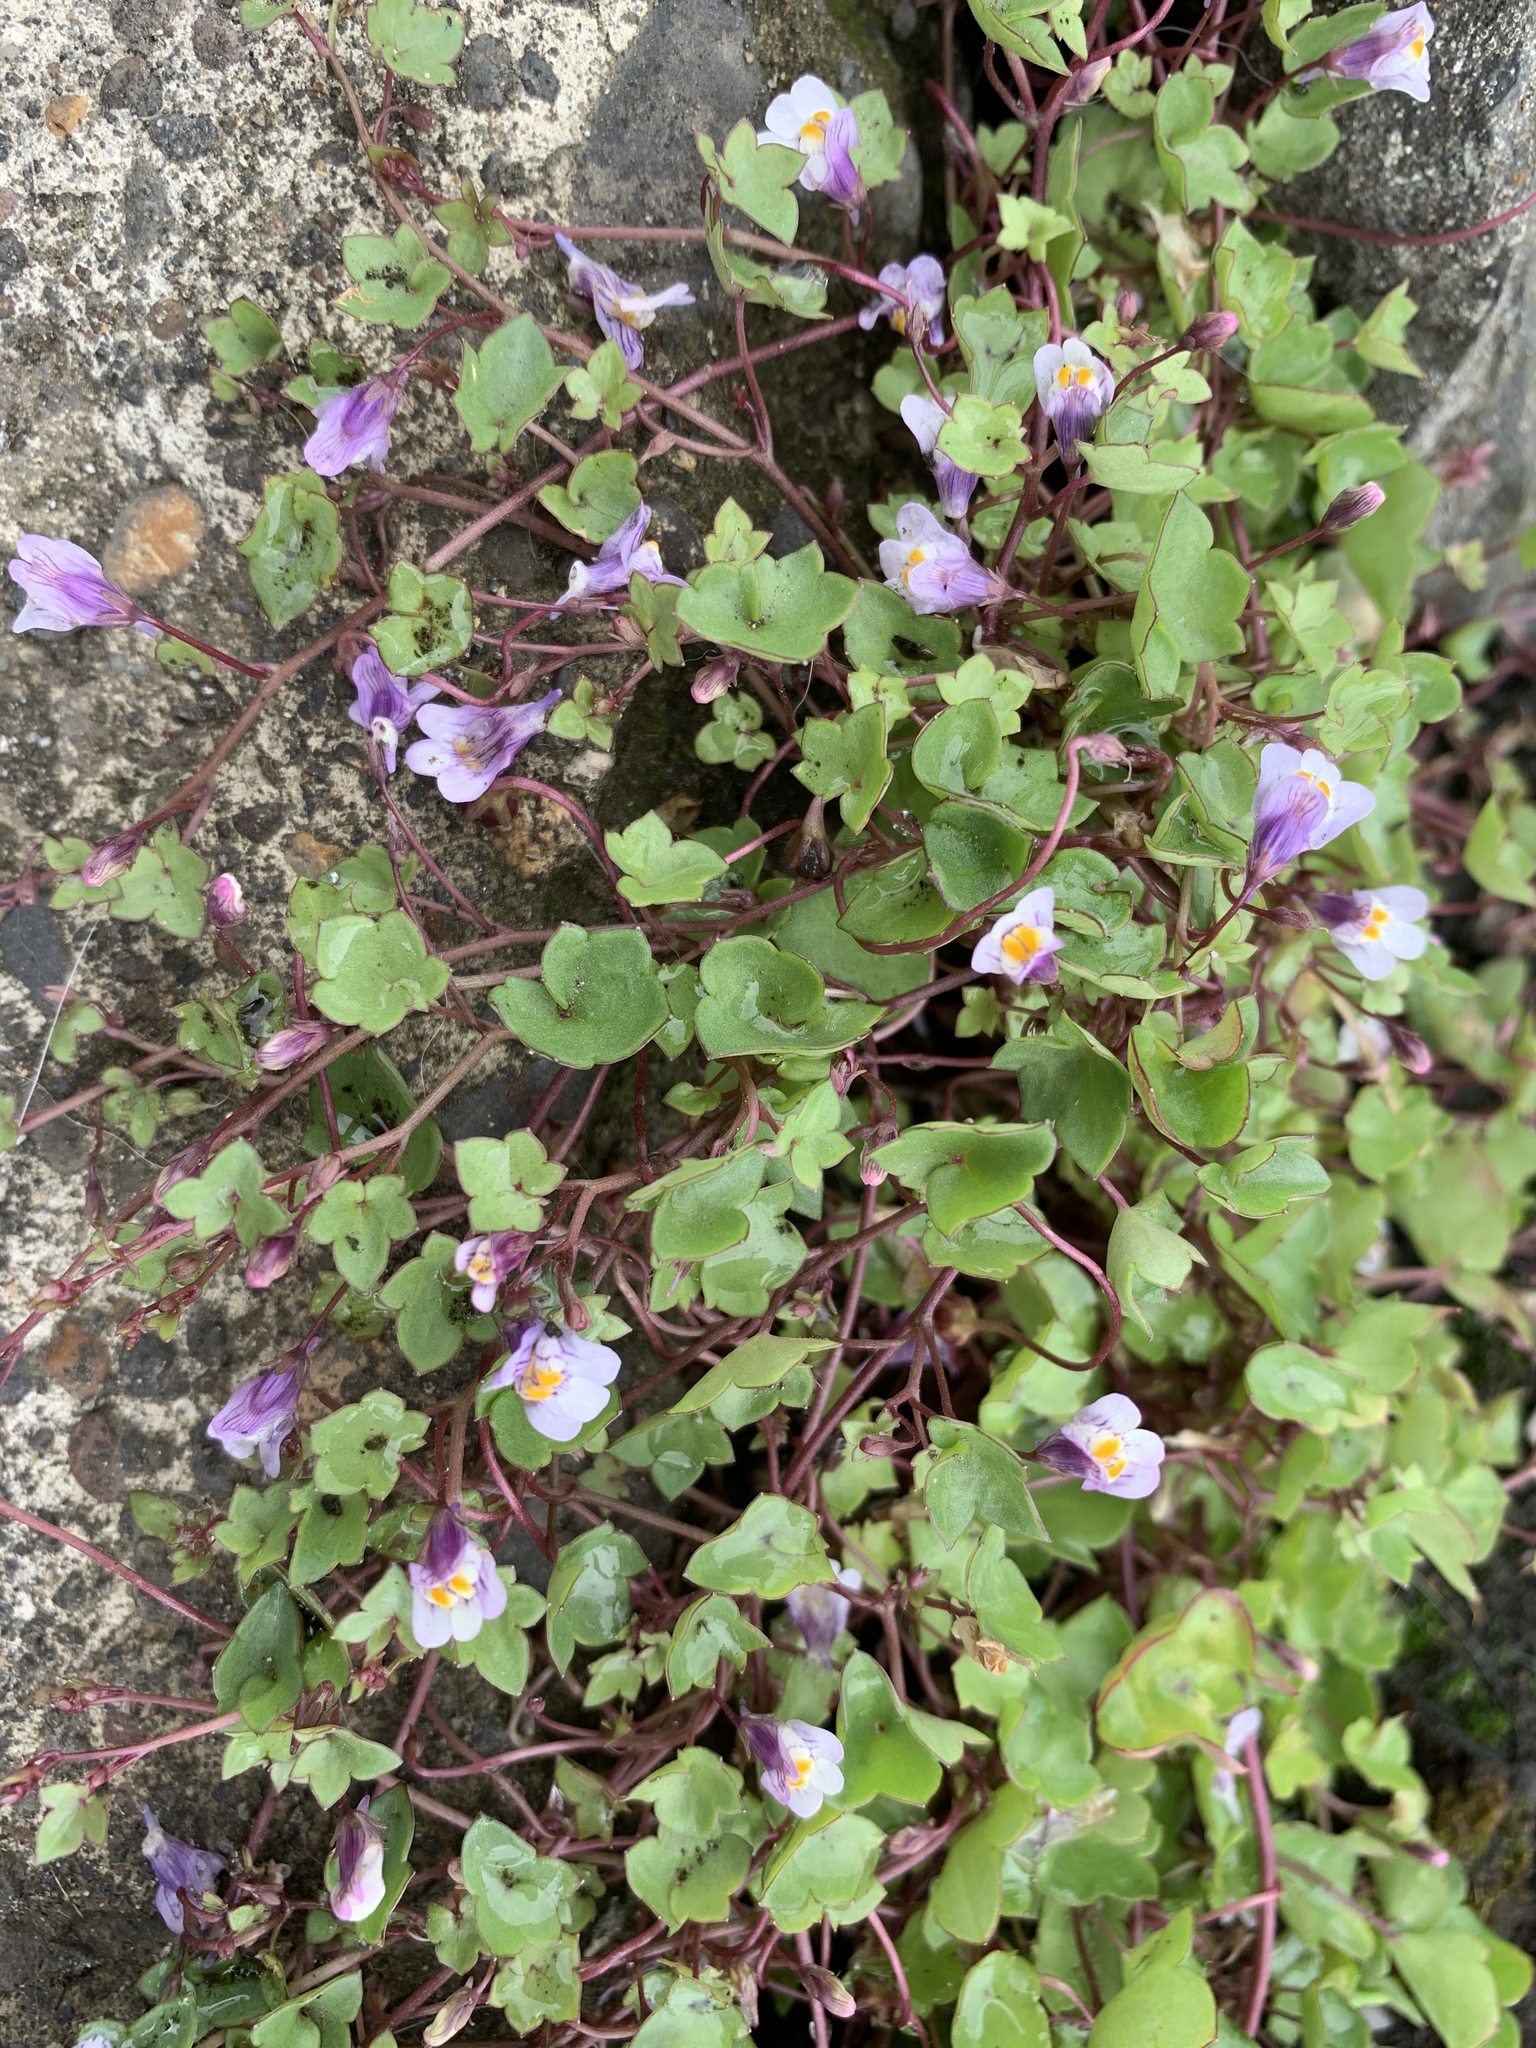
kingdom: Plantae
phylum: Tracheophyta
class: Magnoliopsida
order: Lamiales
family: Plantaginaceae
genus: Cymbalaria
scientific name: Cymbalaria muralis
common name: Ivy-leaved toadflax
